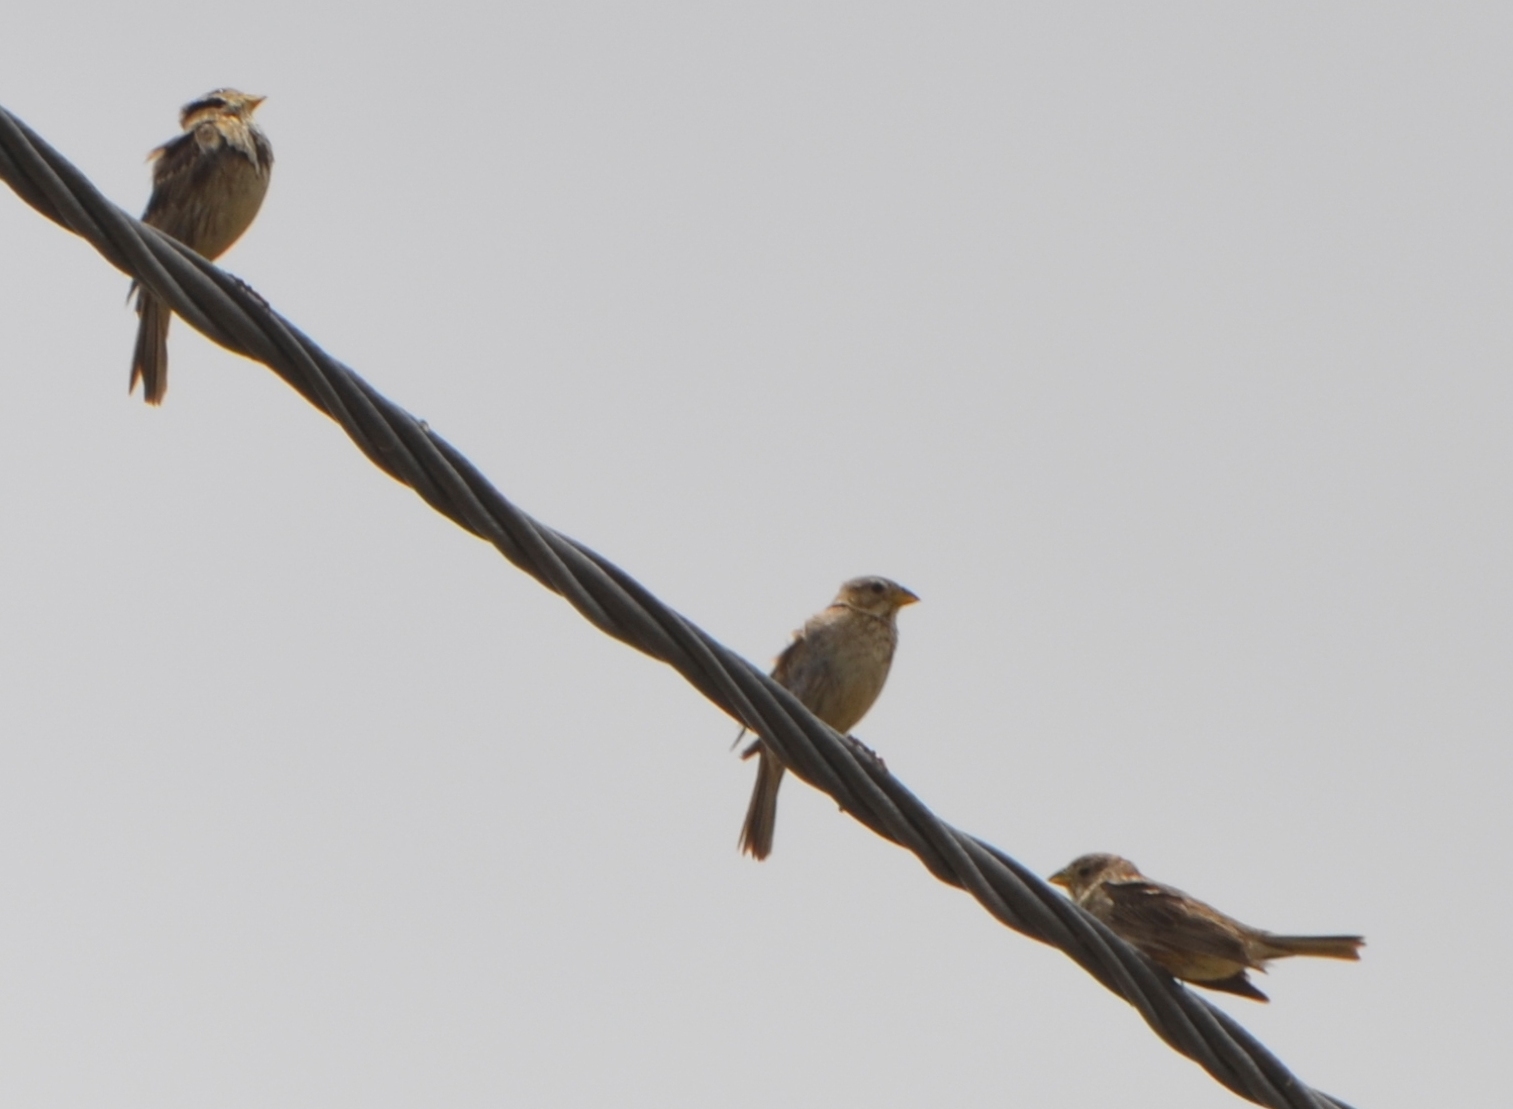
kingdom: Animalia
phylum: Chordata
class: Aves
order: Passeriformes
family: Emberizidae
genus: Emberiza
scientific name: Emberiza calandra
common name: Corn bunting
